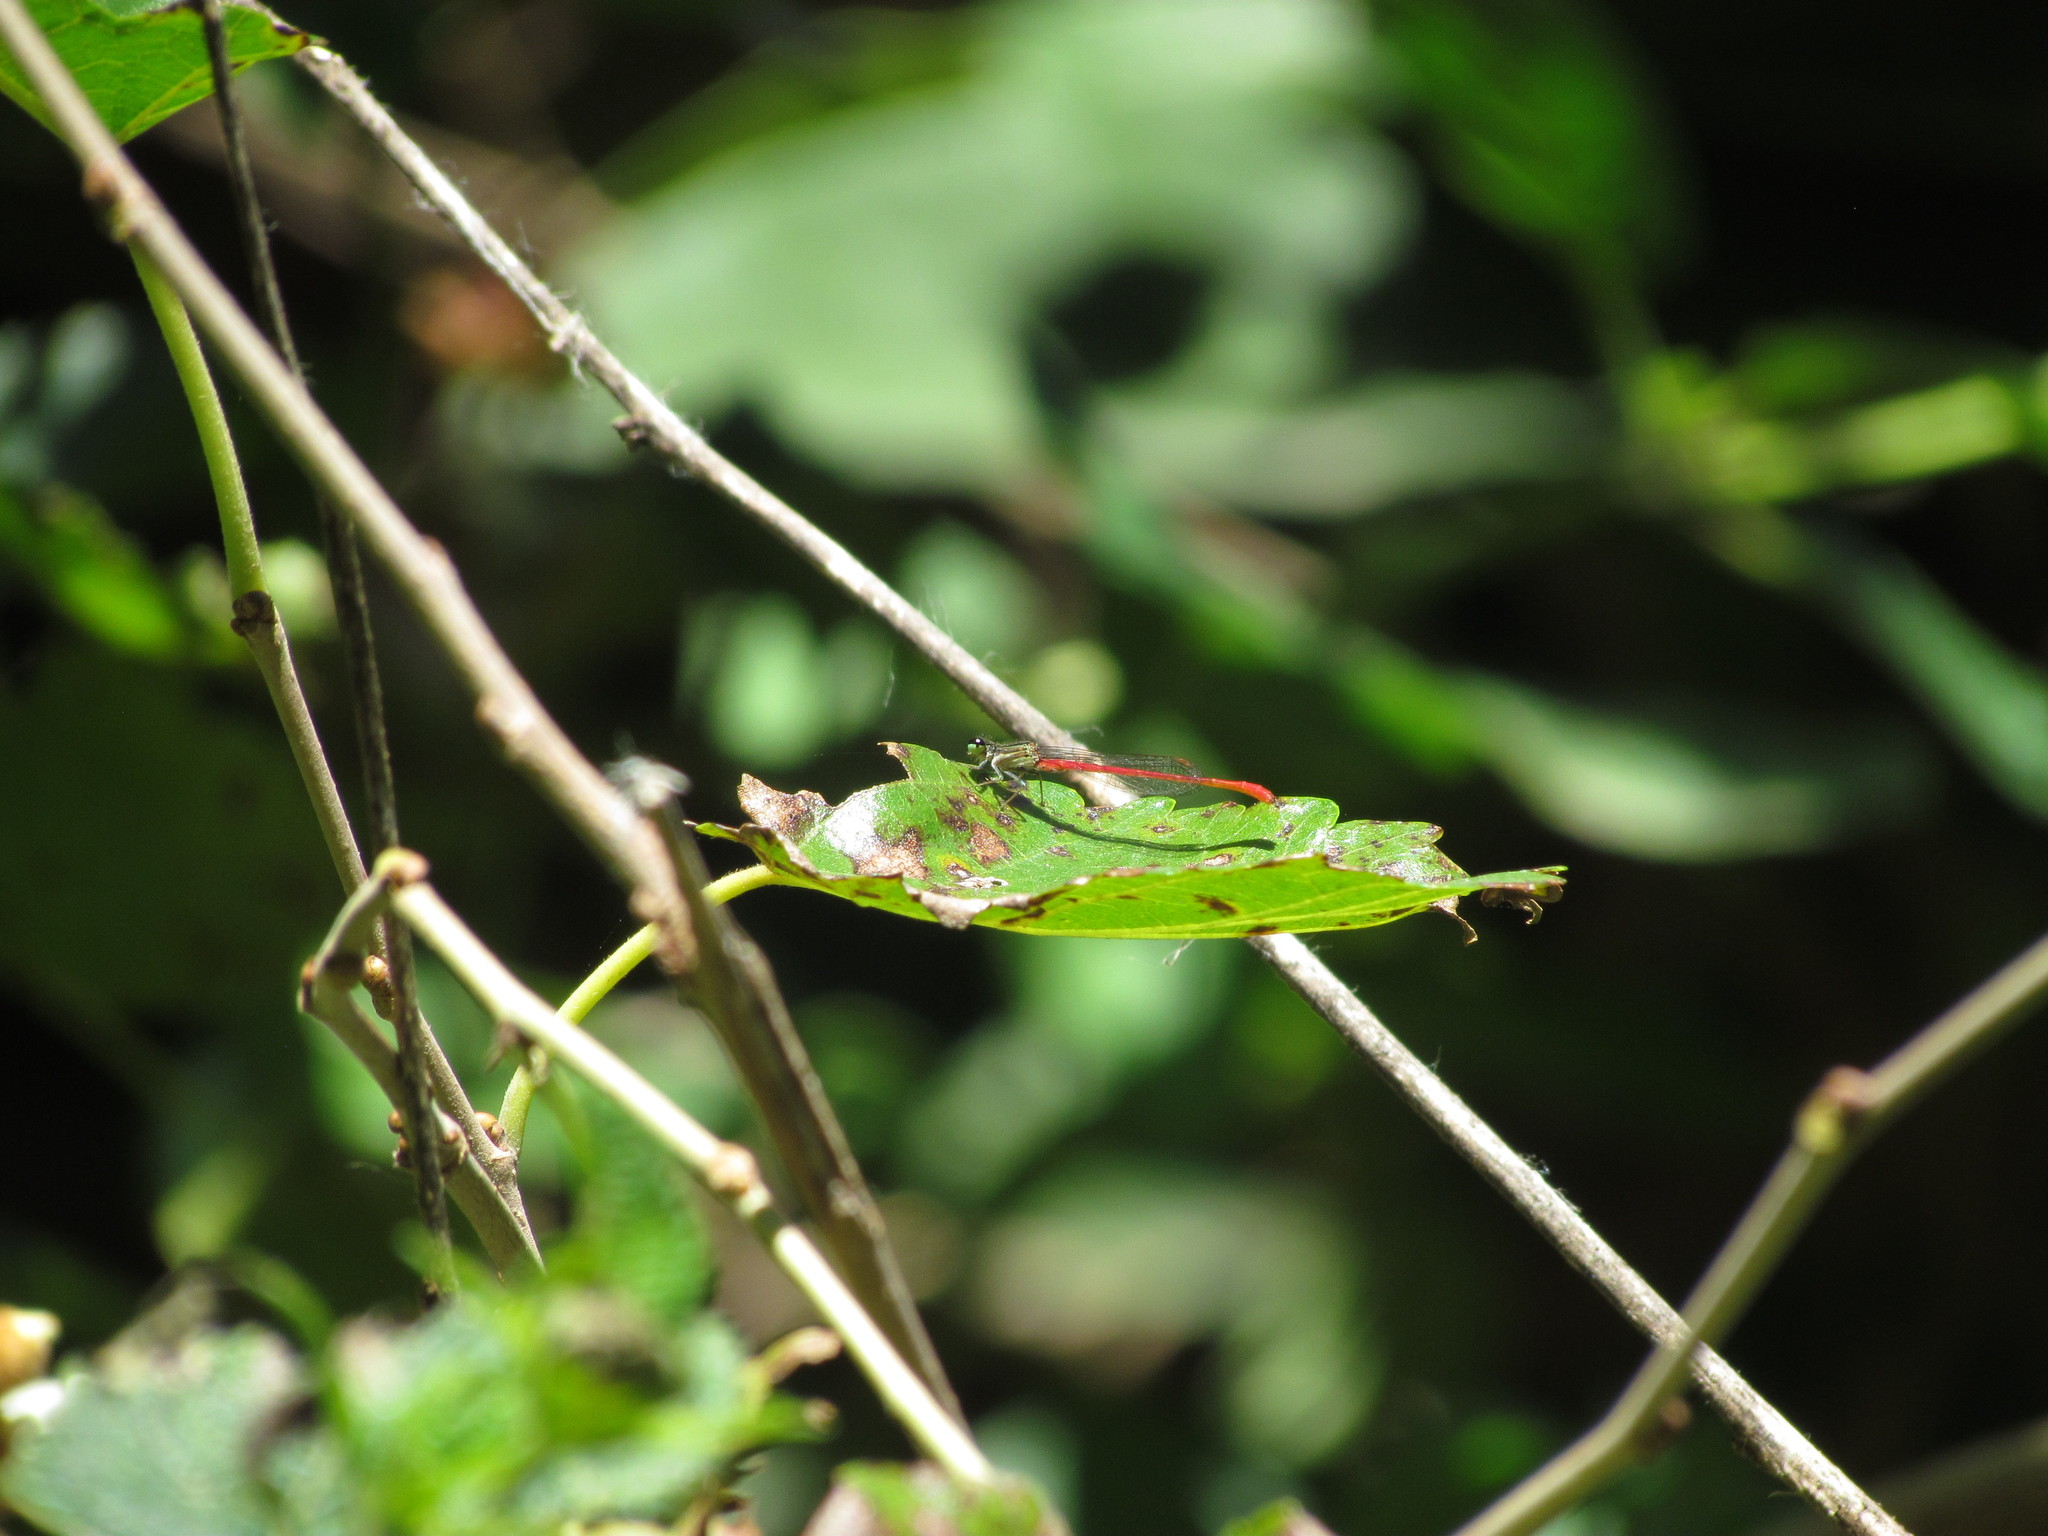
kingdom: Animalia
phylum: Arthropoda
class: Insecta
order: Odonata
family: Coenagrionidae
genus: Telebasis
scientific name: Telebasis willinki
